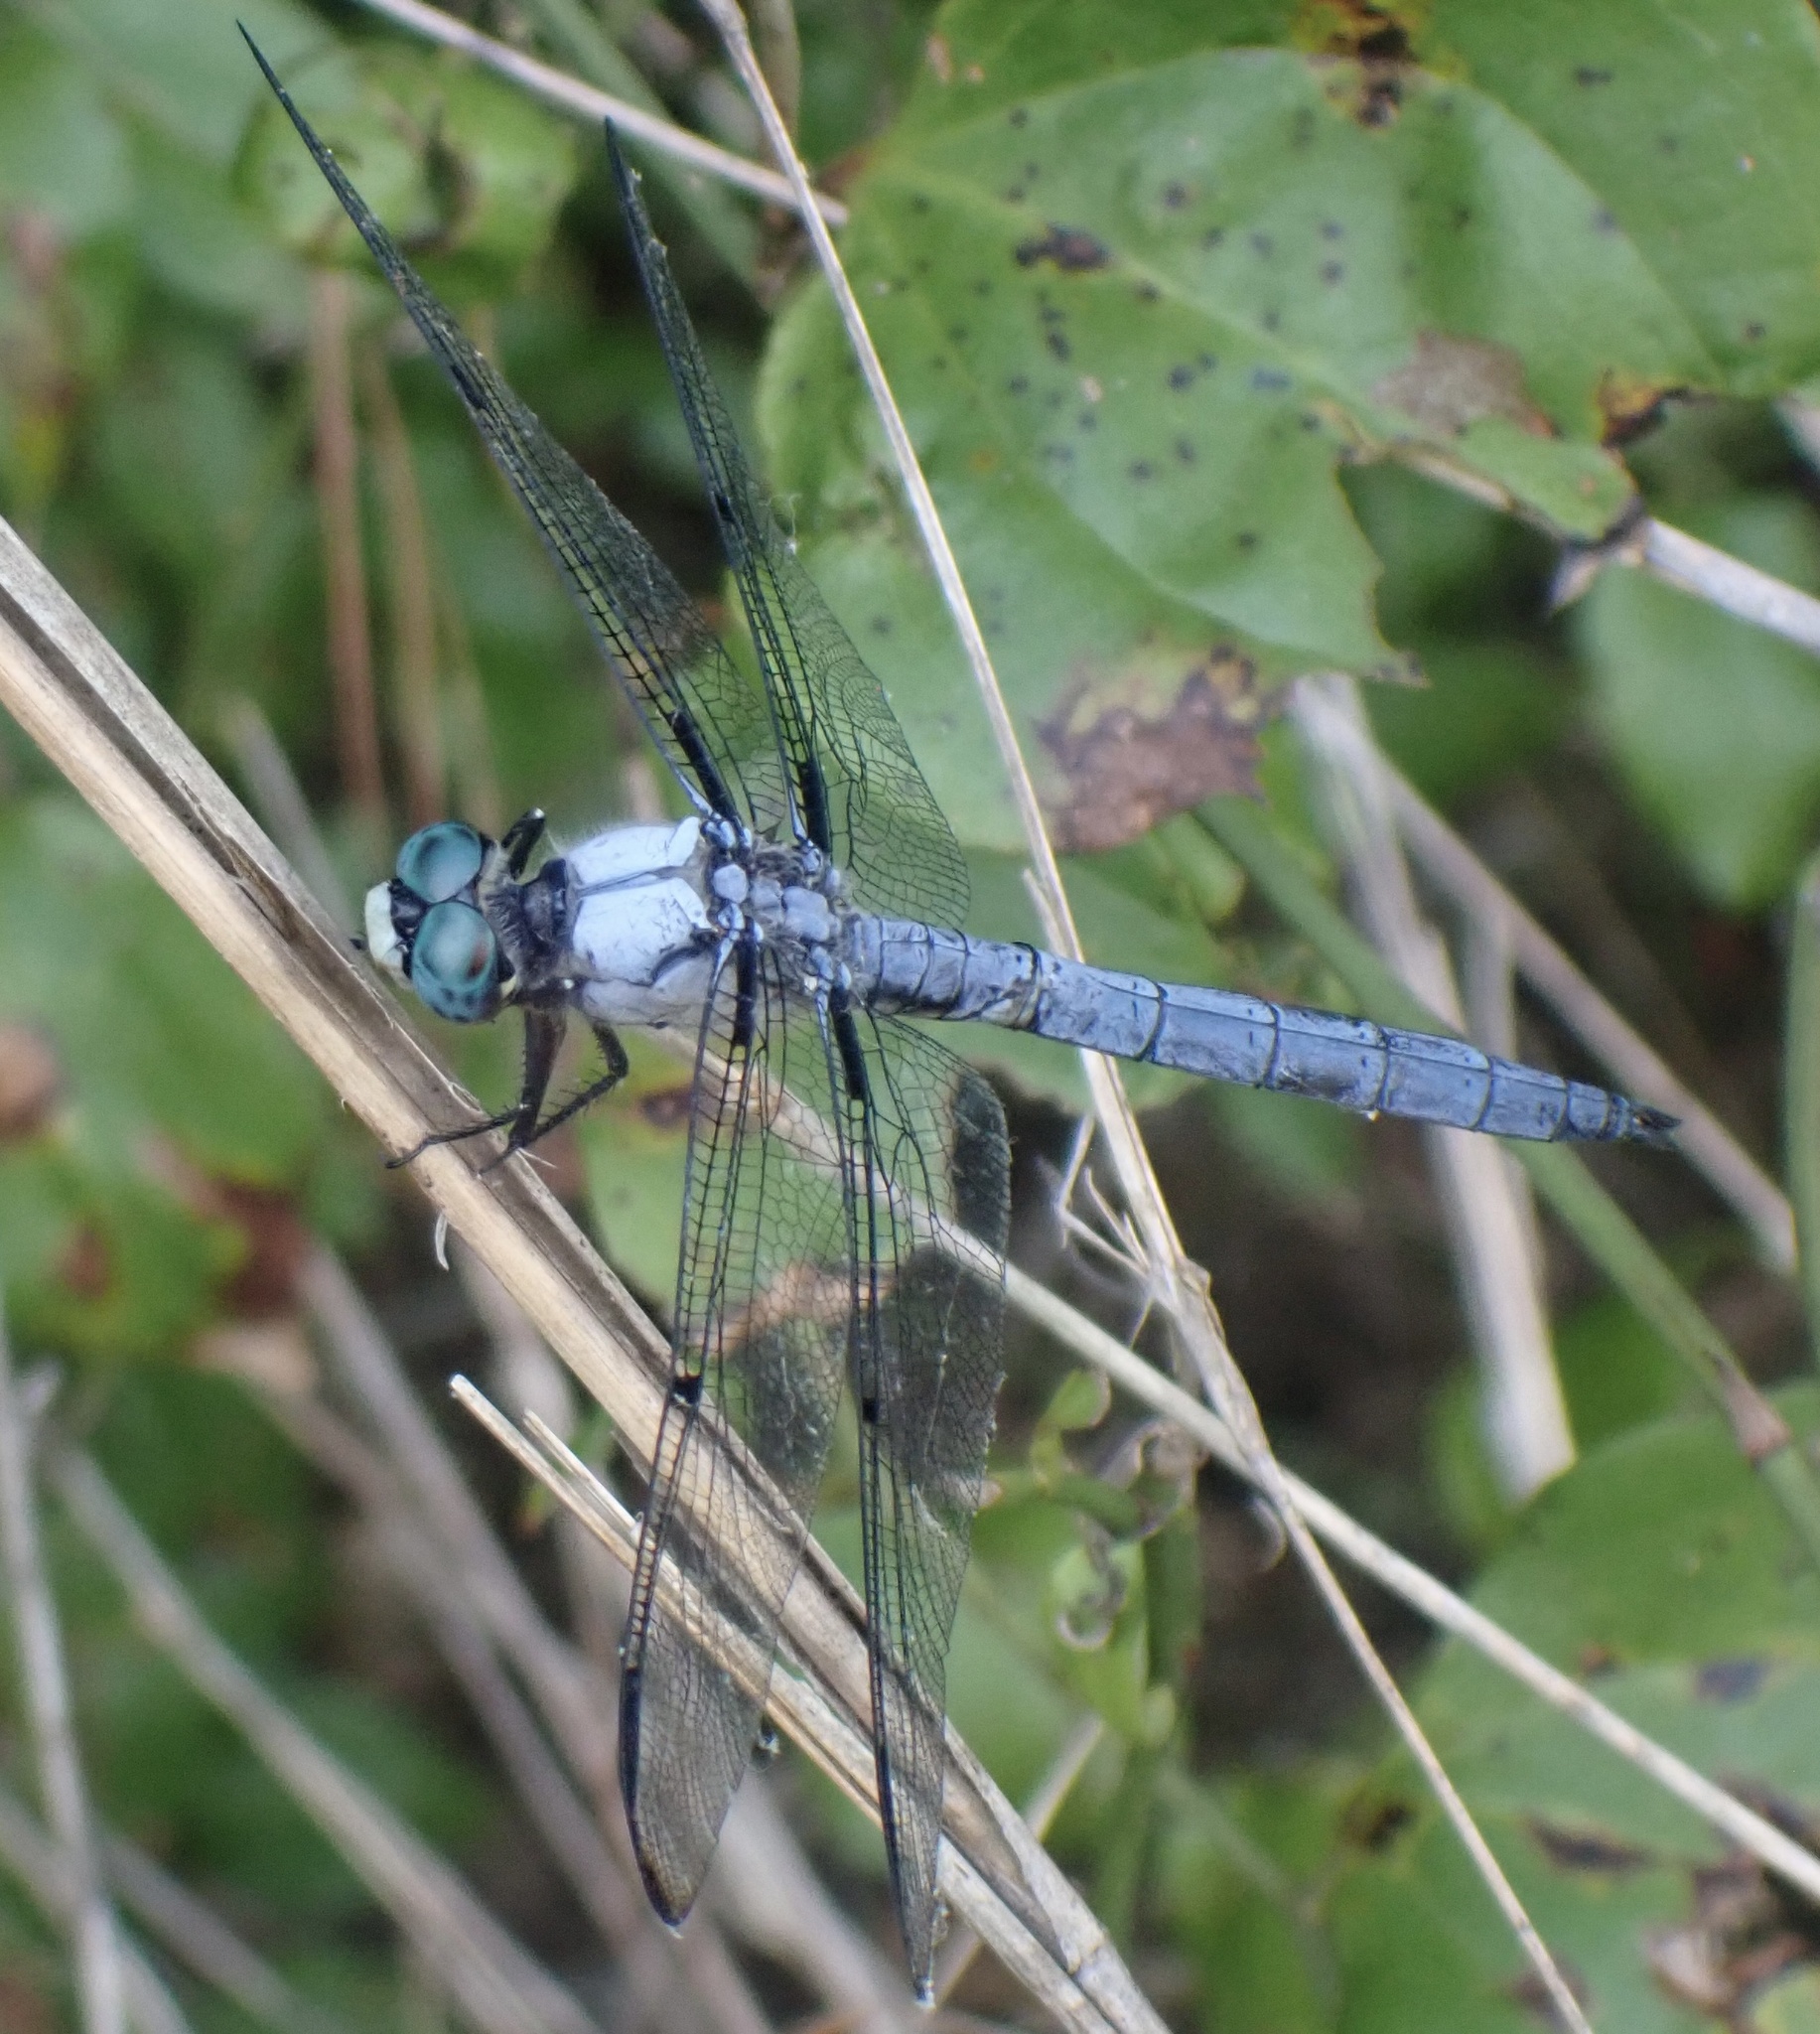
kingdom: Animalia
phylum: Arthropoda
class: Insecta
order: Odonata
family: Libellulidae
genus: Libellula
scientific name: Libellula vibrans
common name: Great blue skimmer
